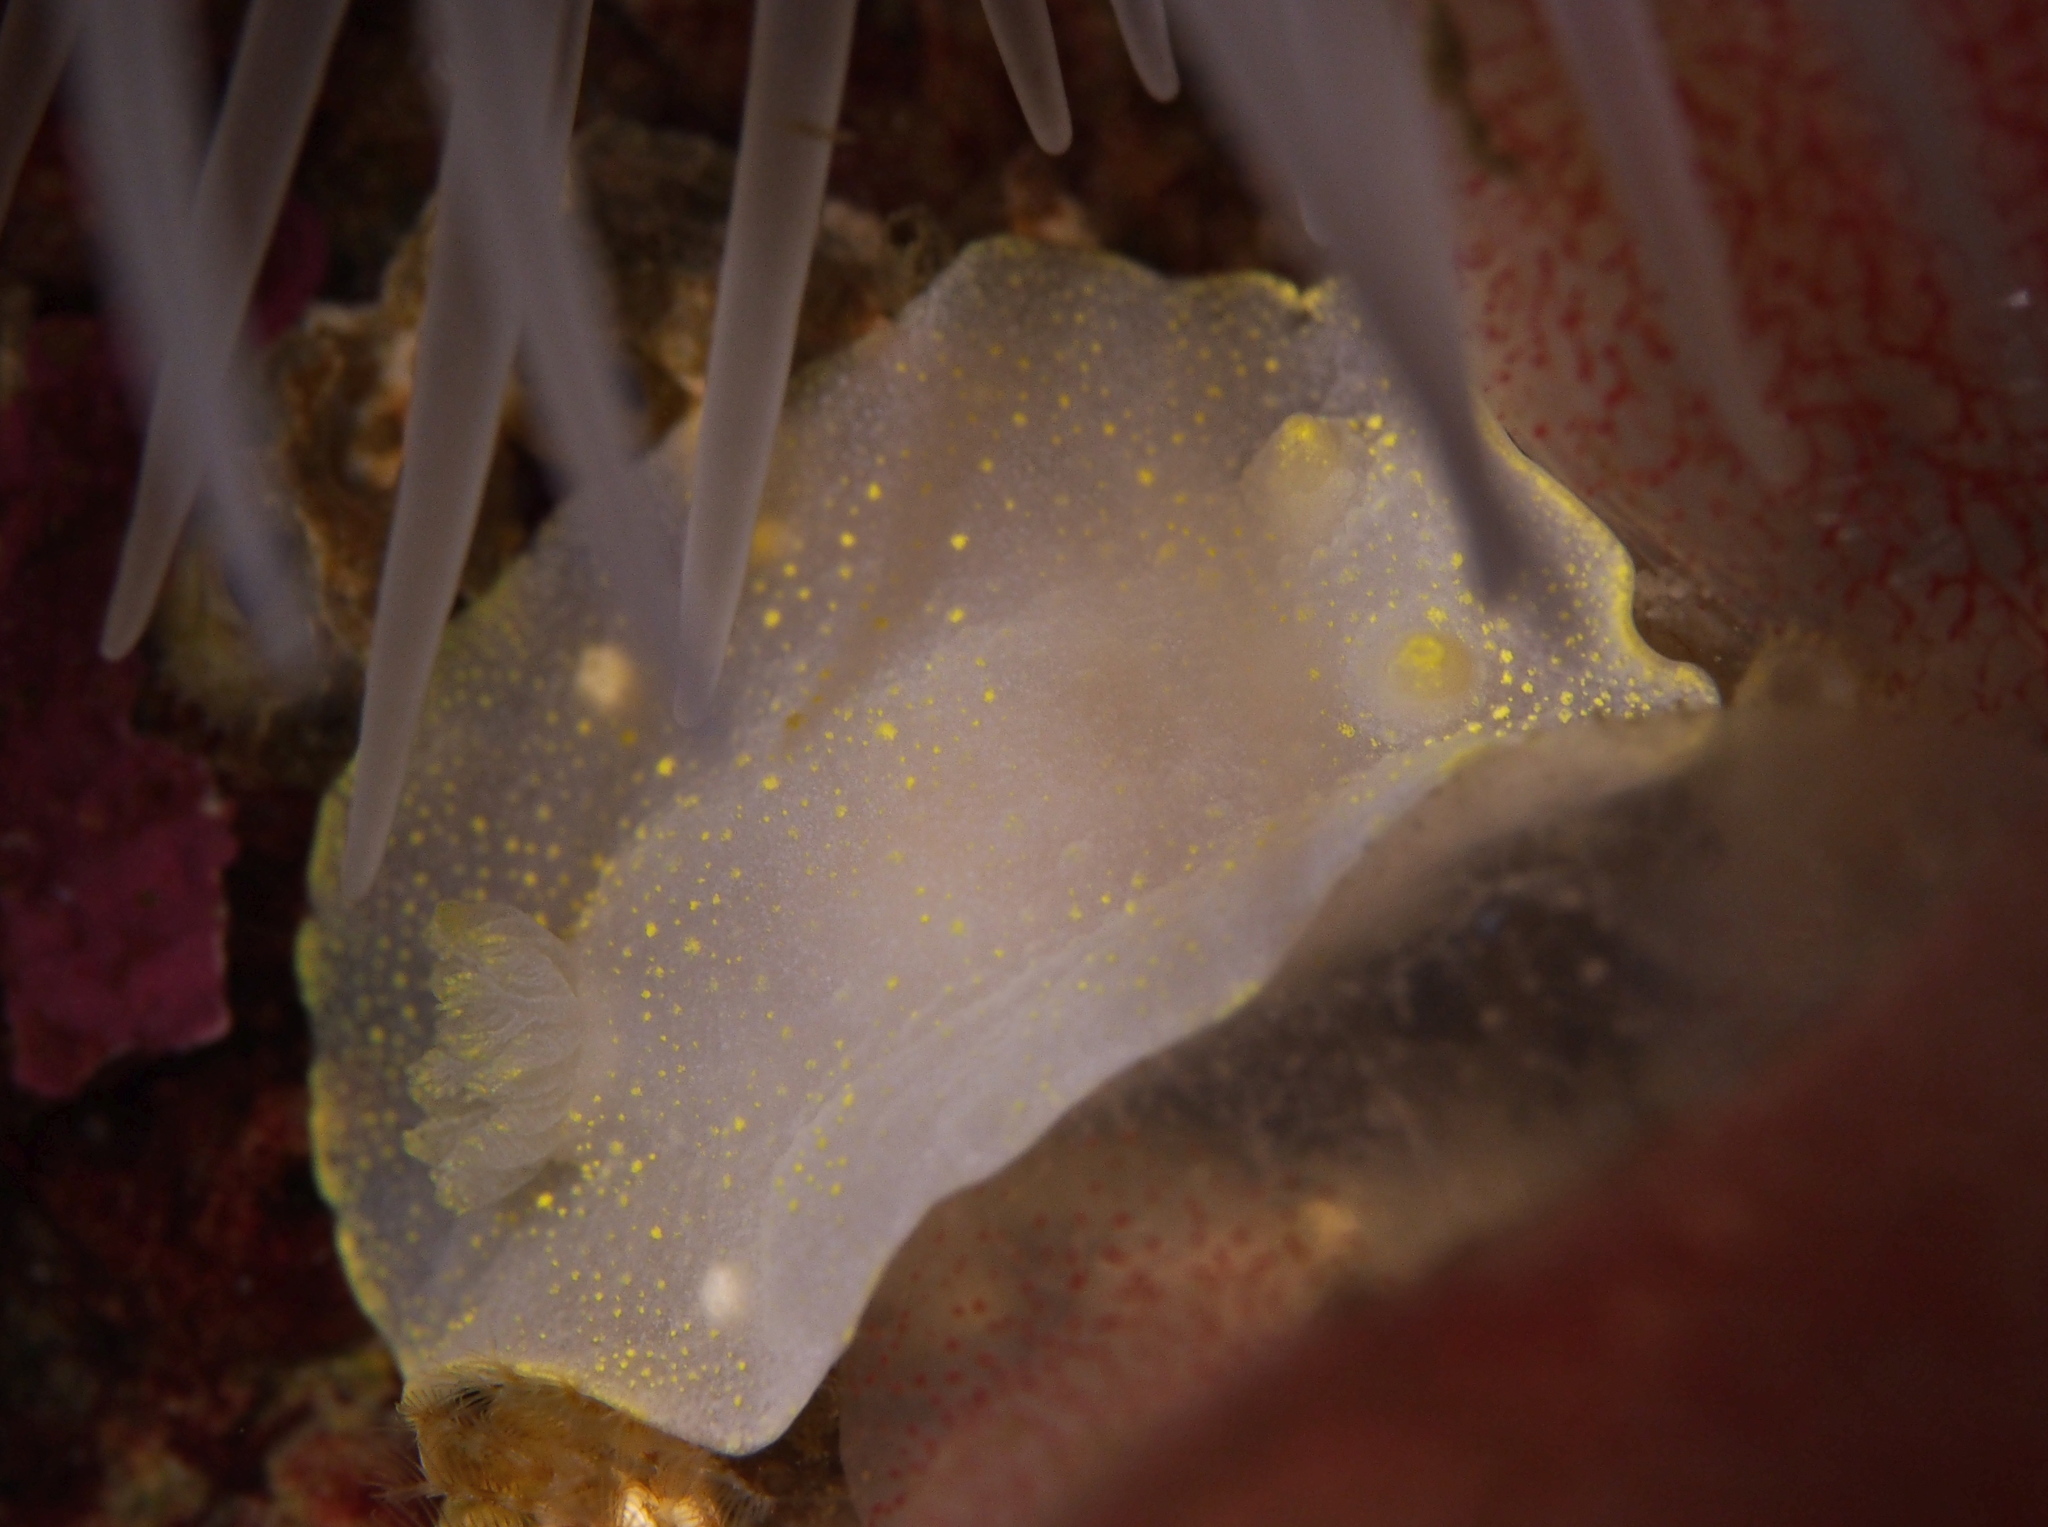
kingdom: Animalia
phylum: Mollusca
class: Gastropoda
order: Nudibranchia
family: Cadlinidae
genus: Cadlina
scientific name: Cadlina laevis
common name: White atlantic cadlina
